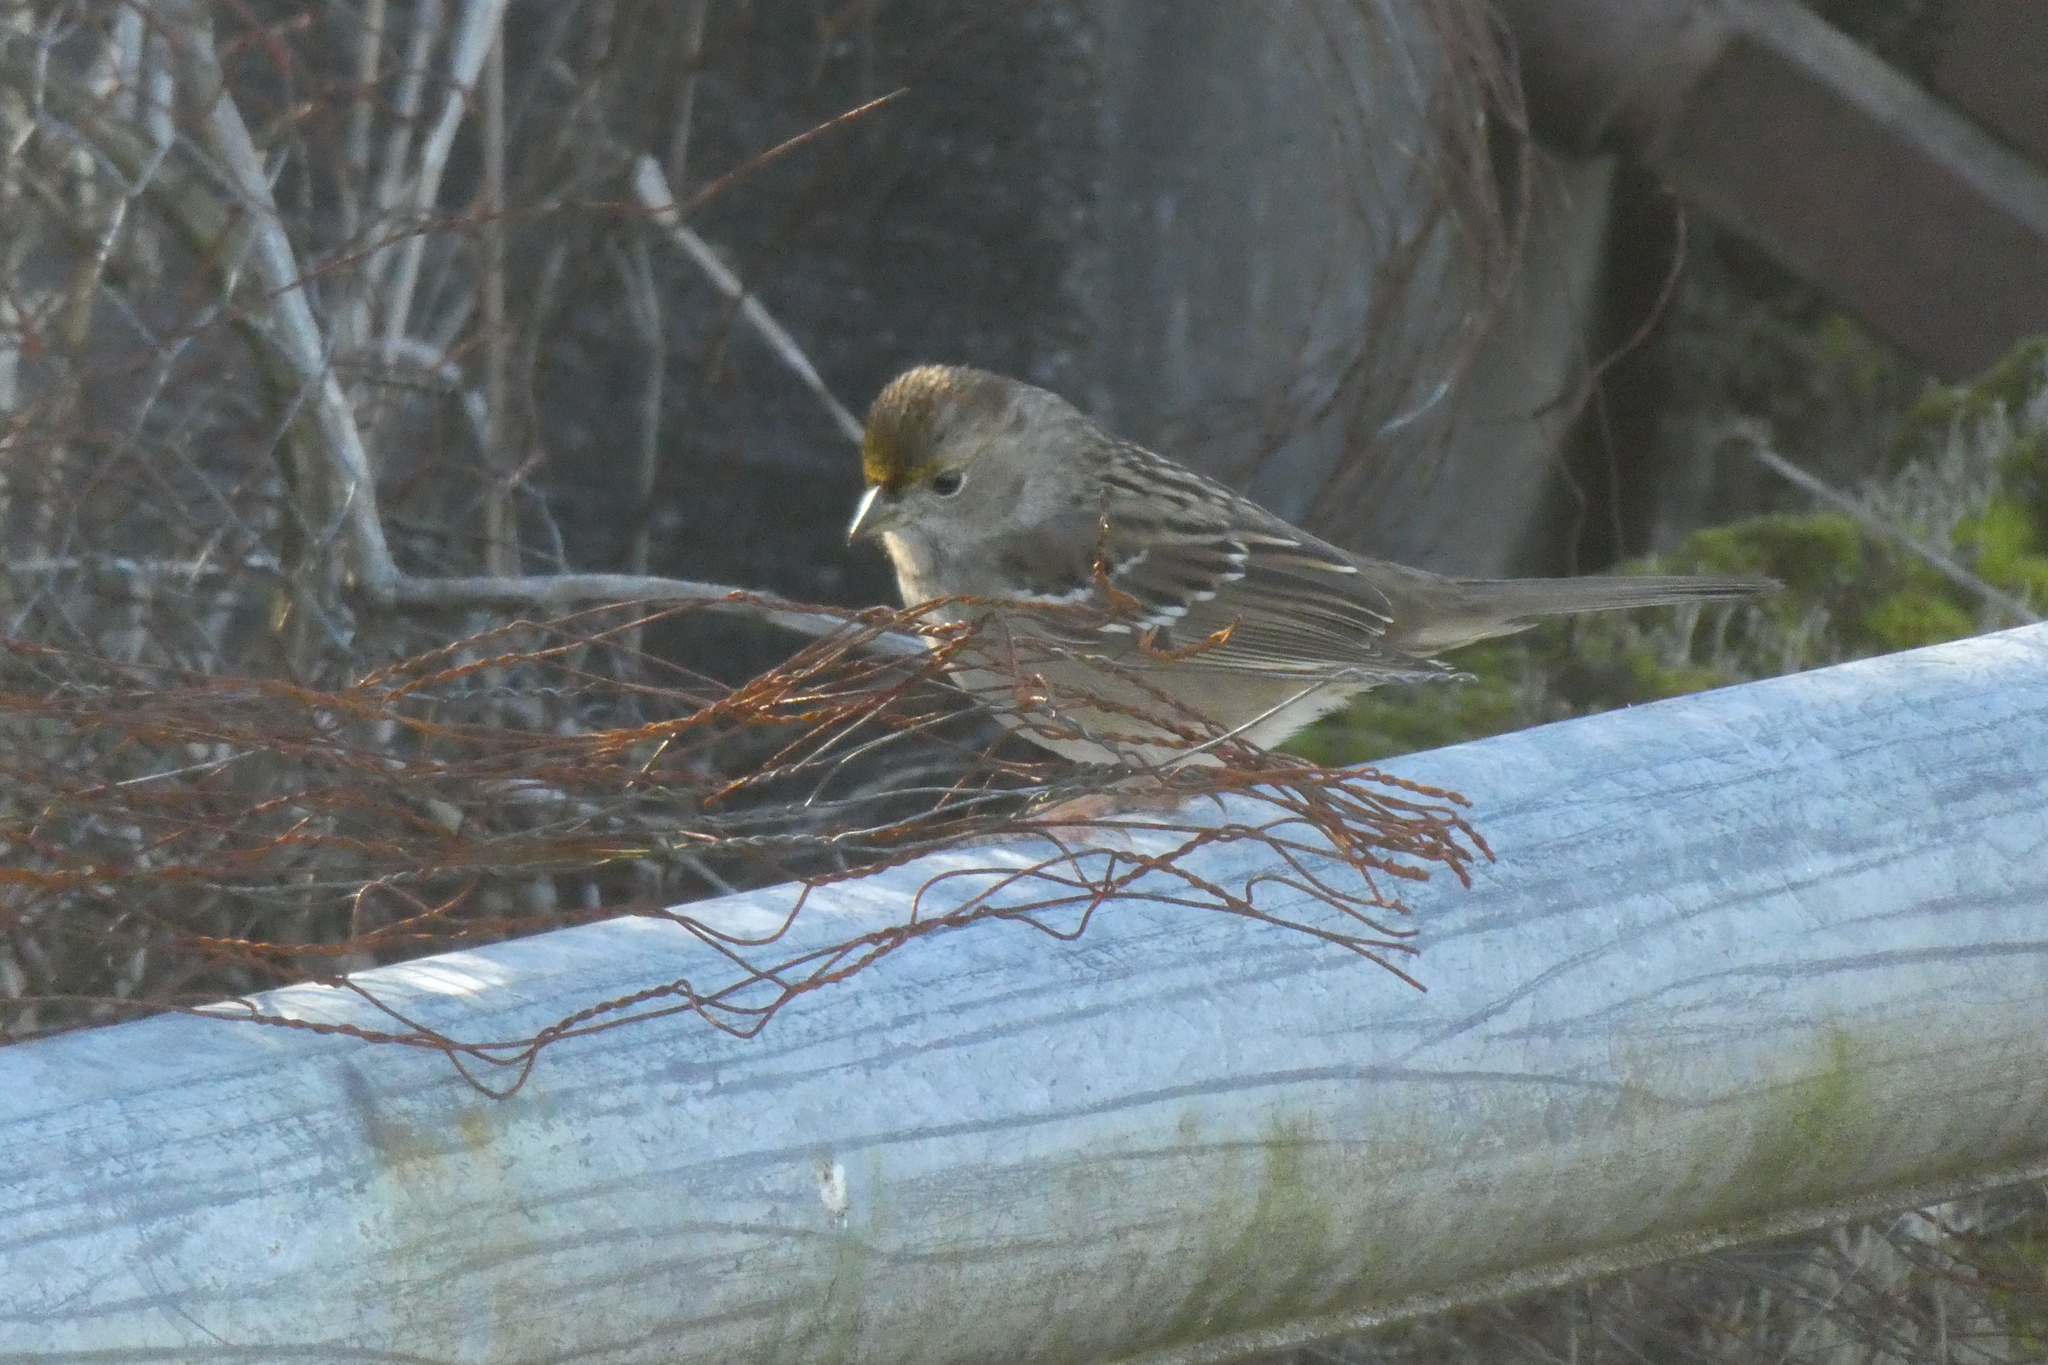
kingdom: Animalia
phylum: Chordata
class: Aves
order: Passeriformes
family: Passerellidae
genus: Zonotrichia
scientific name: Zonotrichia atricapilla
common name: Golden-crowned sparrow
